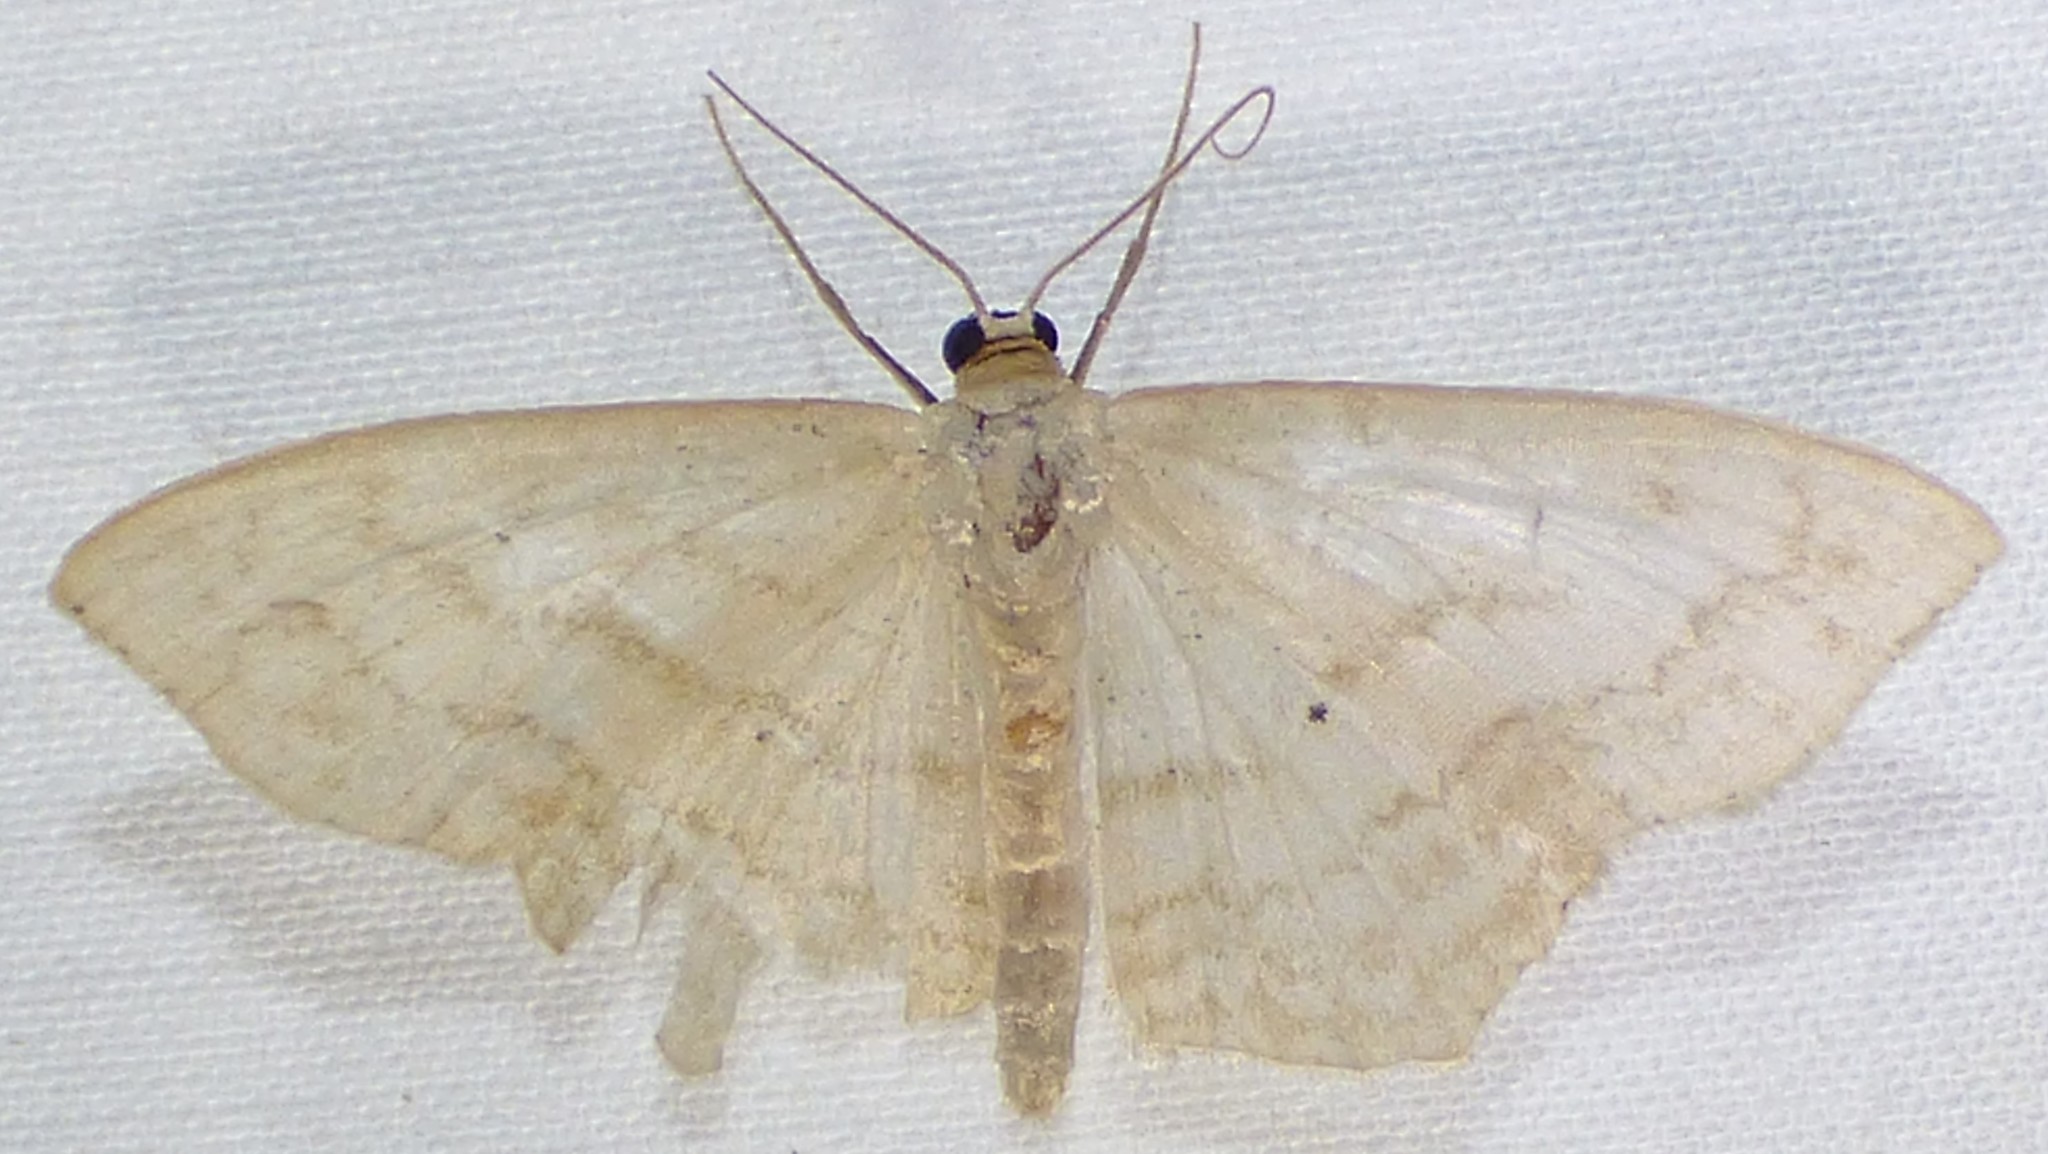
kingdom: Animalia
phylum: Arthropoda
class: Insecta
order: Lepidoptera
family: Geometridae
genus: Scopula
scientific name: Scopula limboundata
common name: Large lace border
